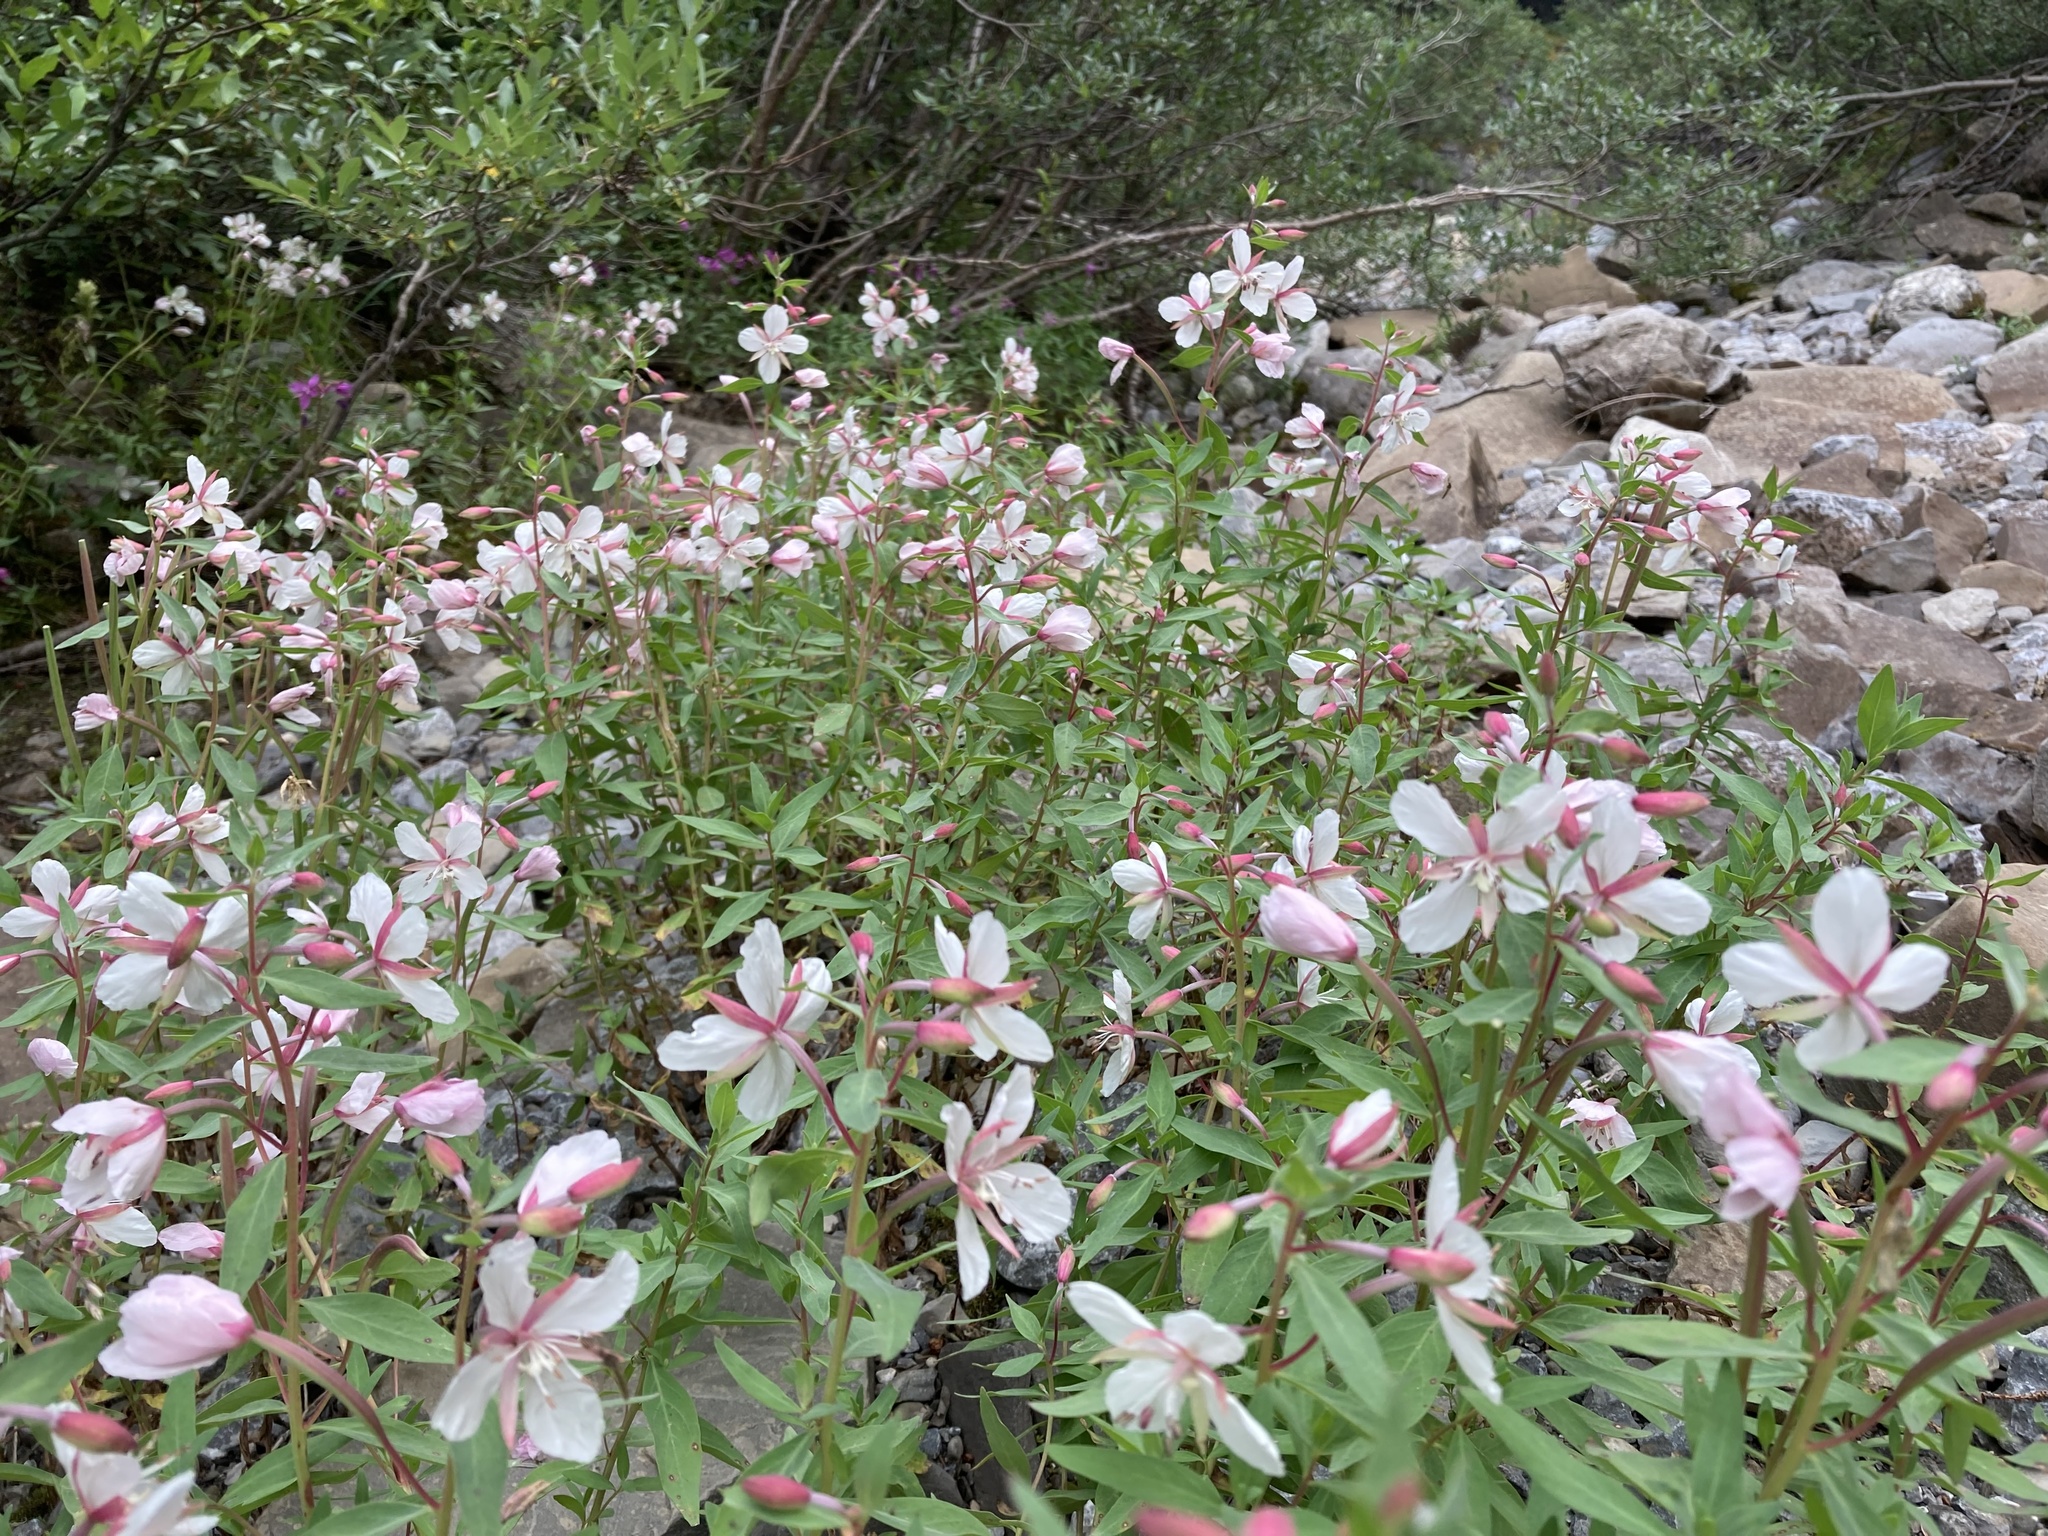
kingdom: Plantae
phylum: Tracheophyta
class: Magnoliopsida
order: Myrtales
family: Onagraceae
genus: Chamaenerion
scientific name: Chamaenerion latifolium
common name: Dwarf fireweed
